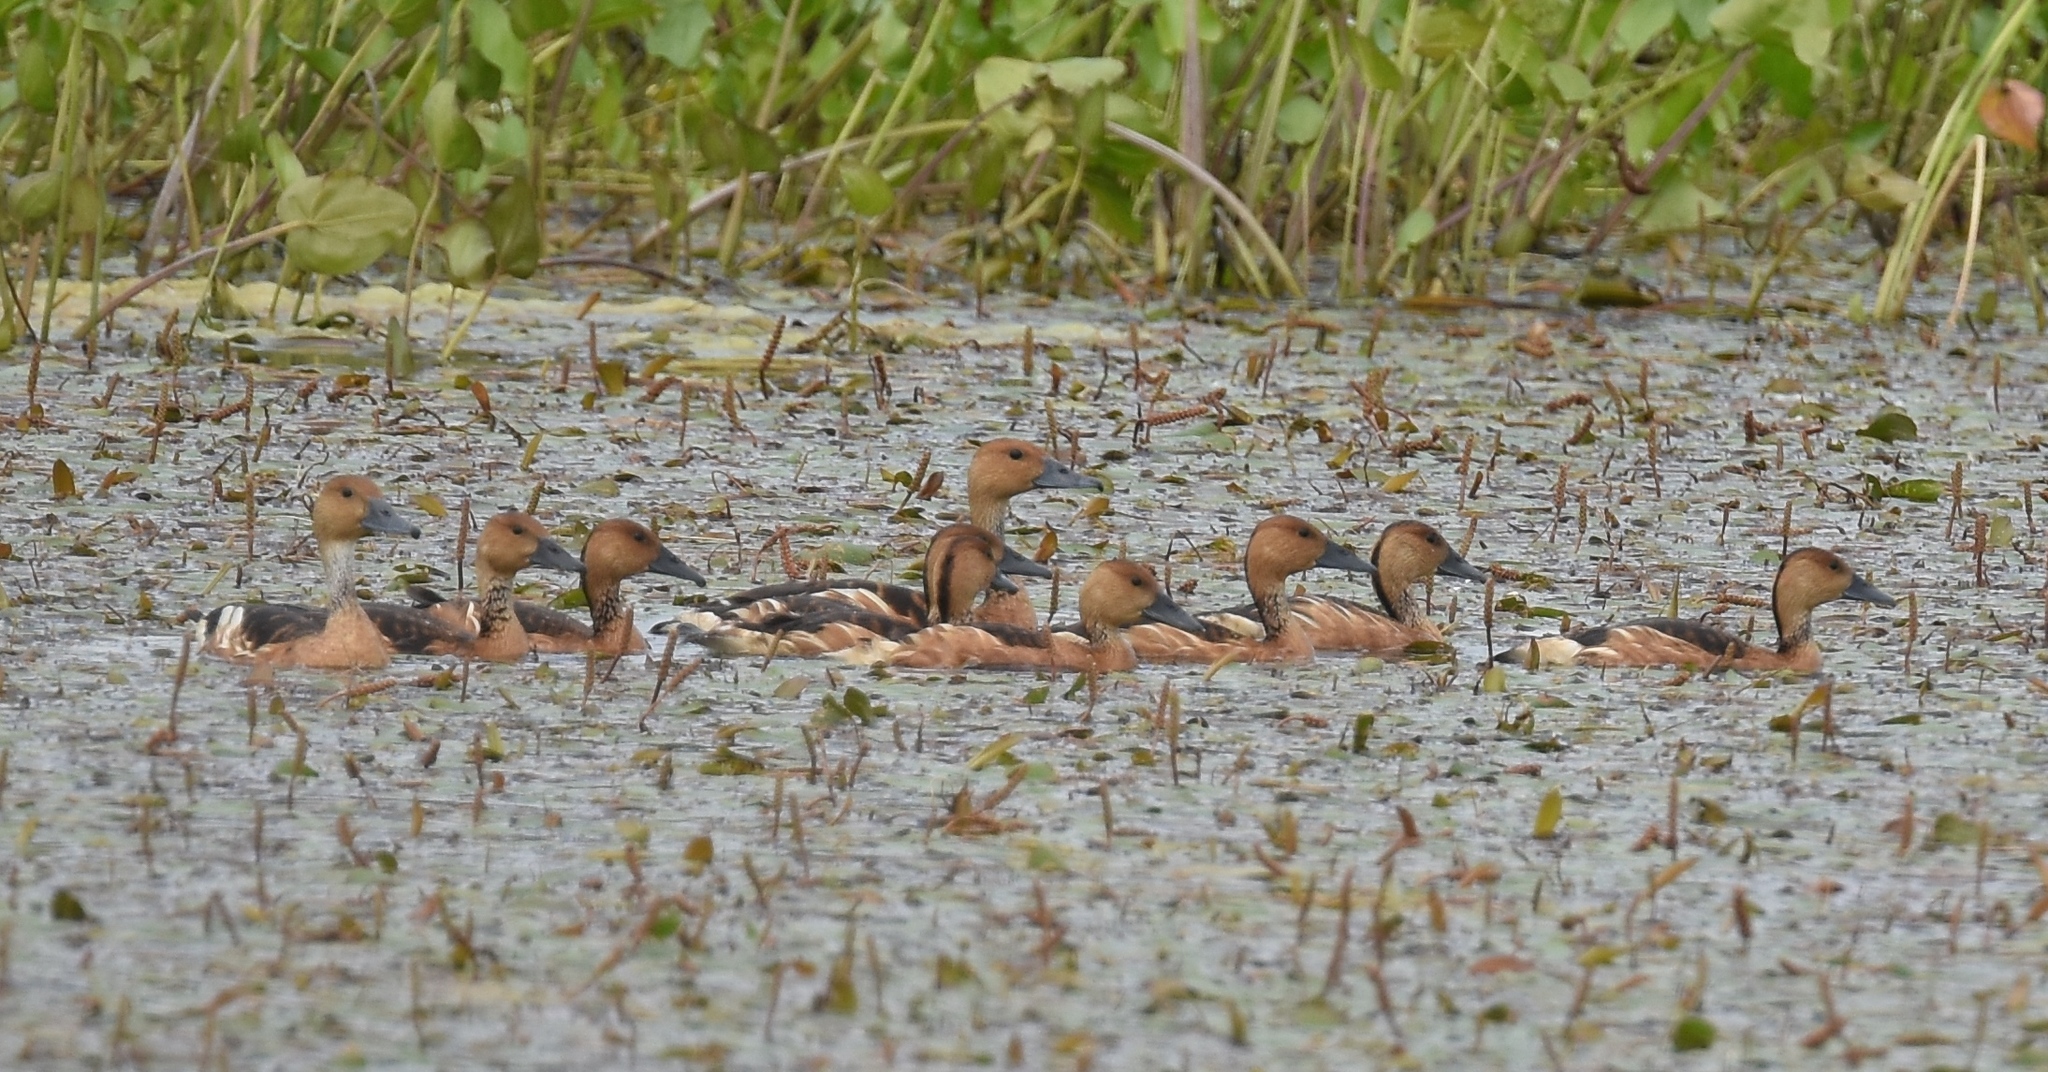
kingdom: Animalia
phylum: Chordata
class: Aves
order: Anseriformes
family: Anatidae
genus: Dendrocygna
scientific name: Dendrocygna bicolor
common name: Fulvous whistling duck
